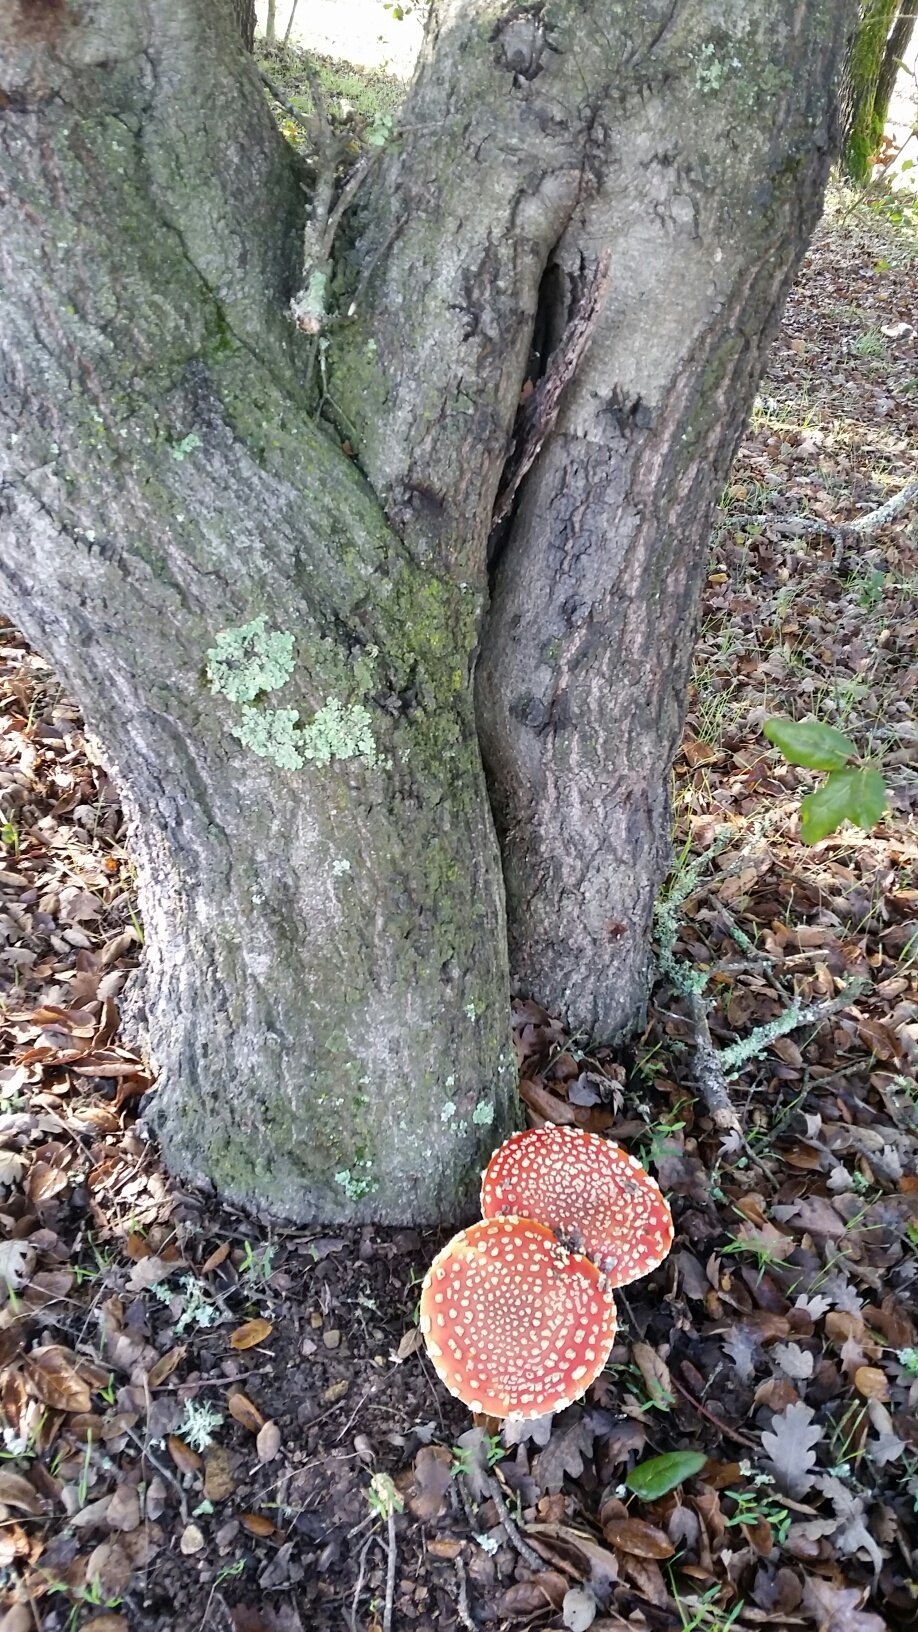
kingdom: Fungi
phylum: Basidiomycota
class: Agaricomycetes
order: Agaricales
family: Amanitaceae
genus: Amanita
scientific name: Amanita muscaria
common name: Fly agaric
